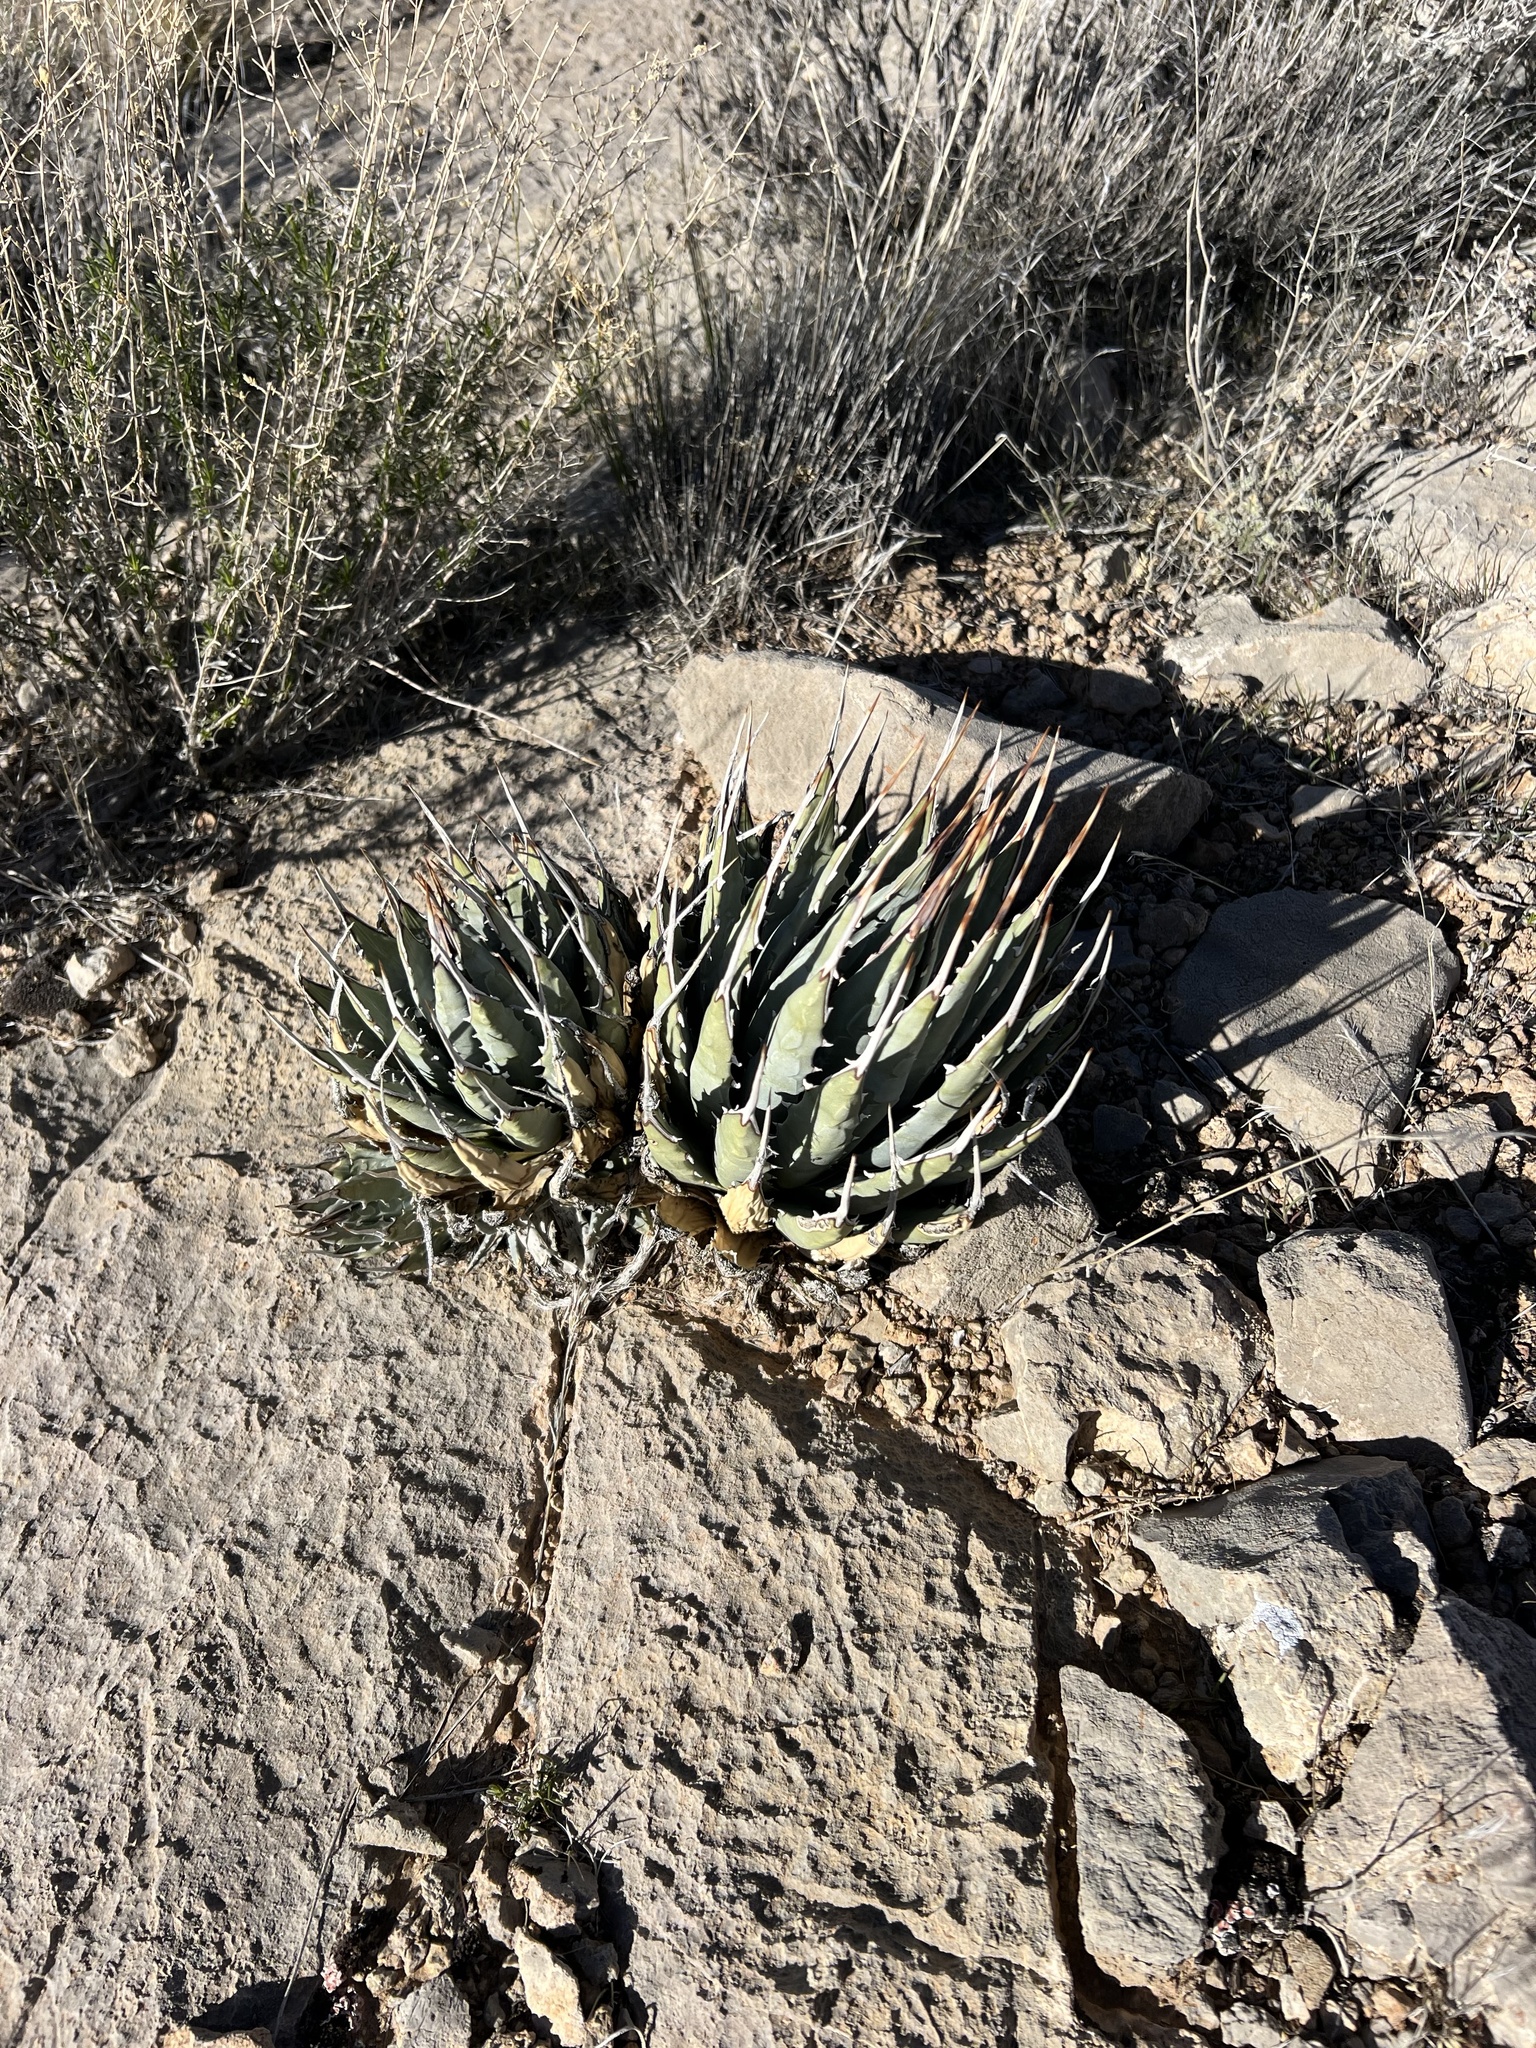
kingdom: Plantae
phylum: Tracheophyta
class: Liliopsida
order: Asparagales
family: Asparagaceae
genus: Agave
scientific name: Agave utahensis
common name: Utah agave
